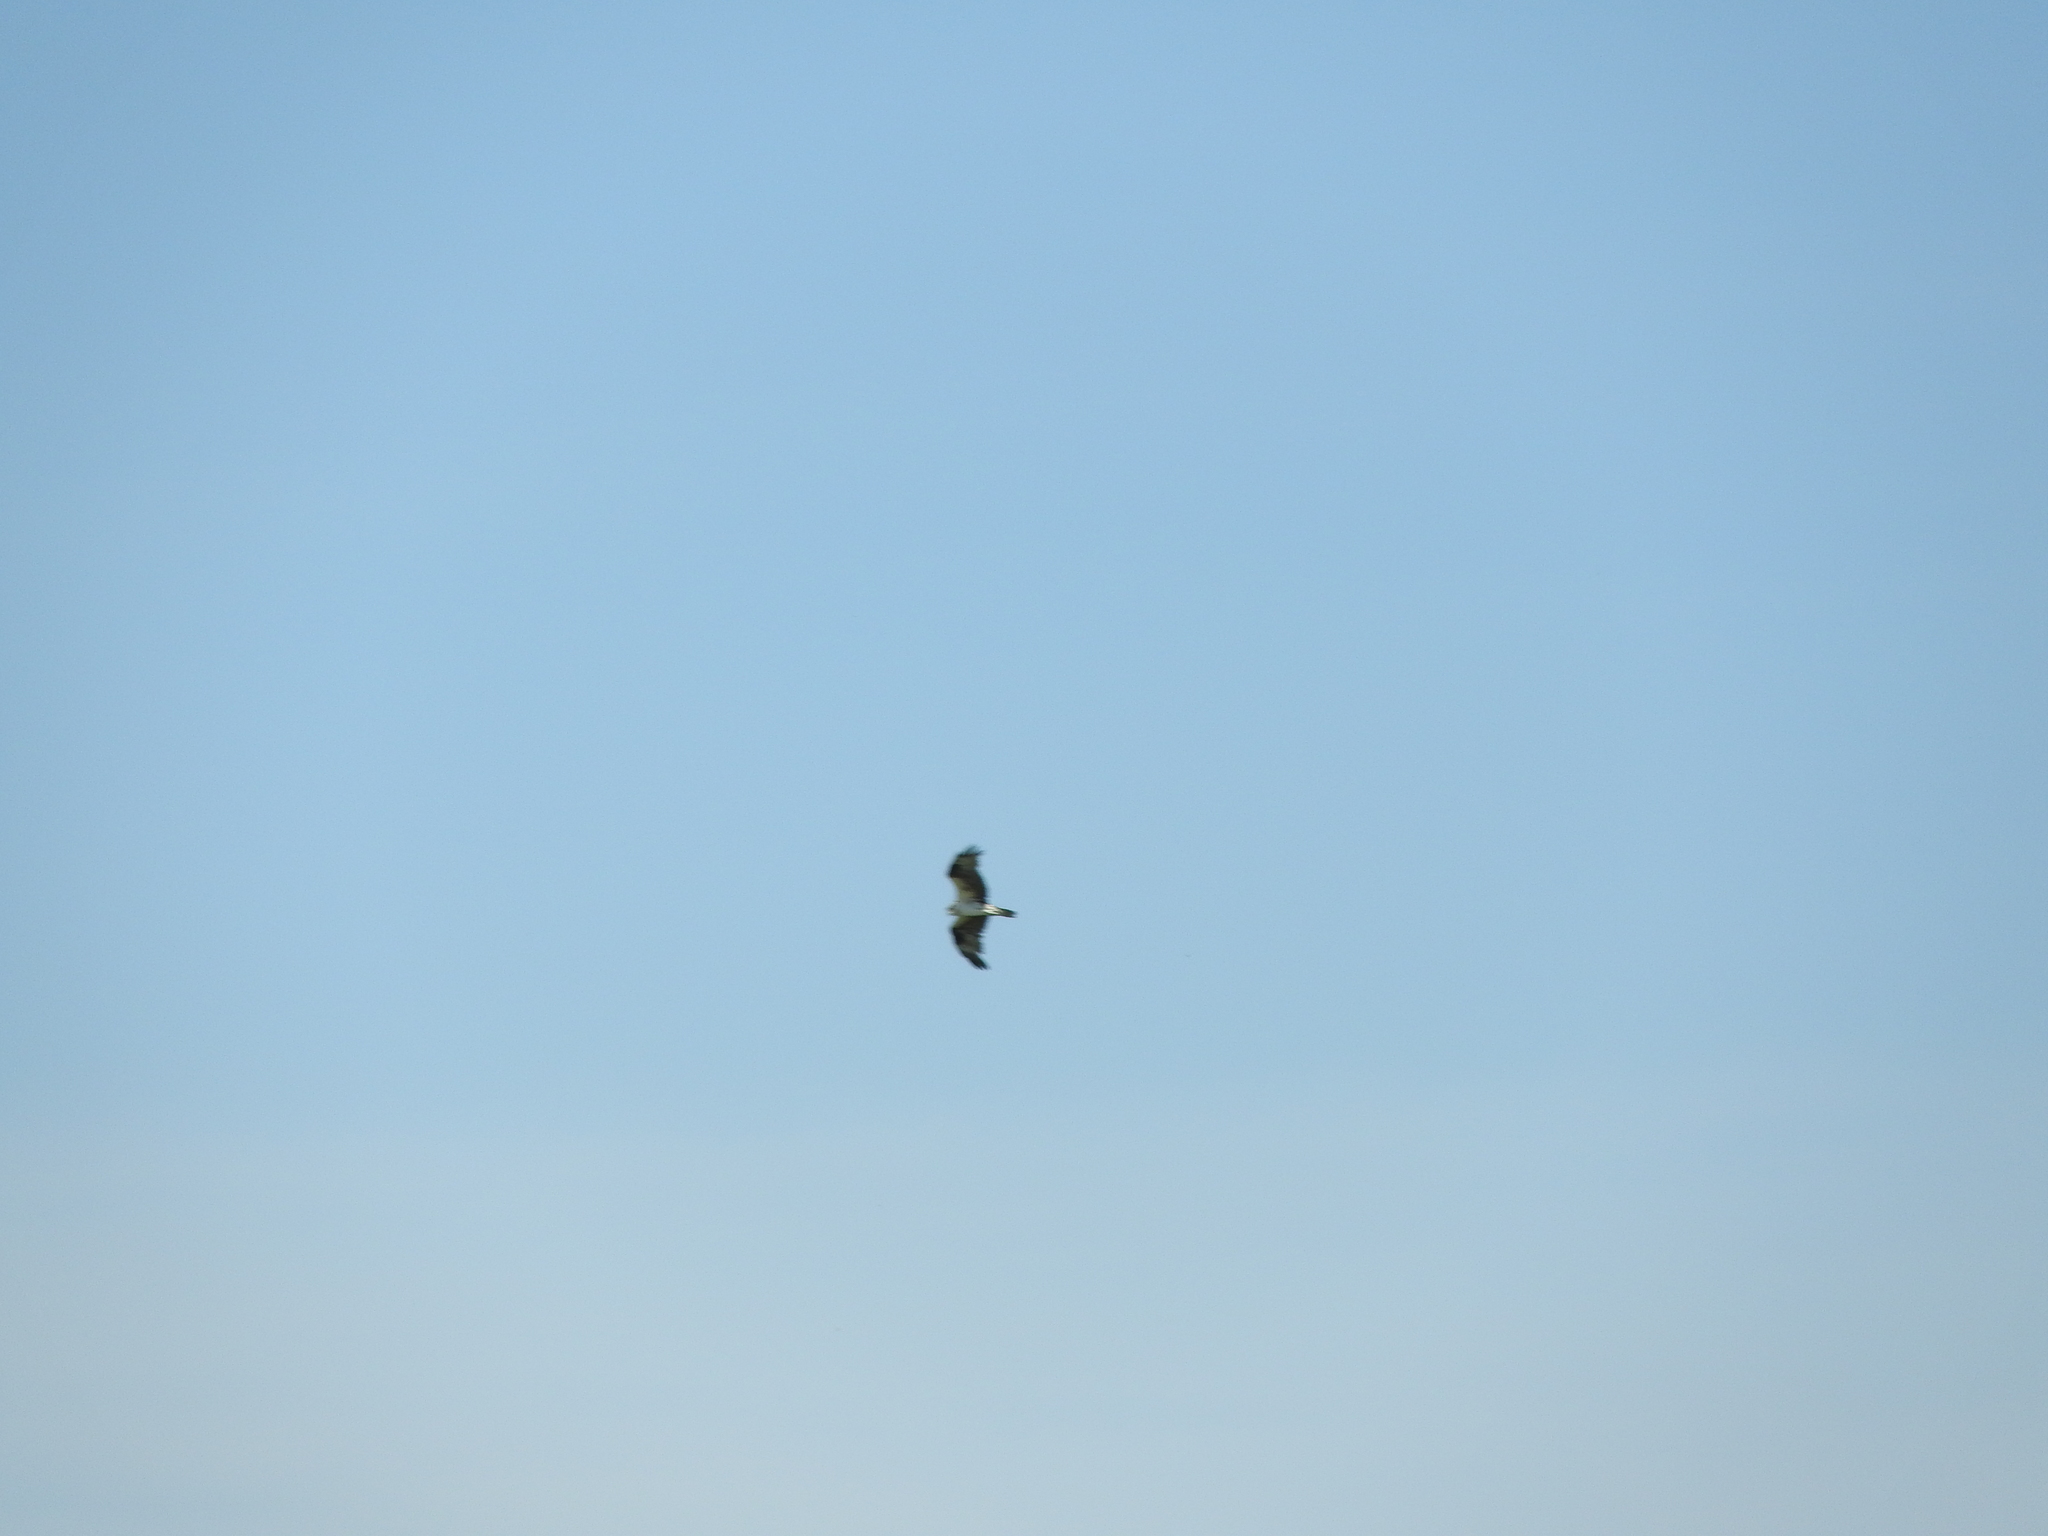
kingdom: Animalia
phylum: Chordata
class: Aves
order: Accipitriformes
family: Pandionidae
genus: Pandion
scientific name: Pandion haliaetus
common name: Osprey
